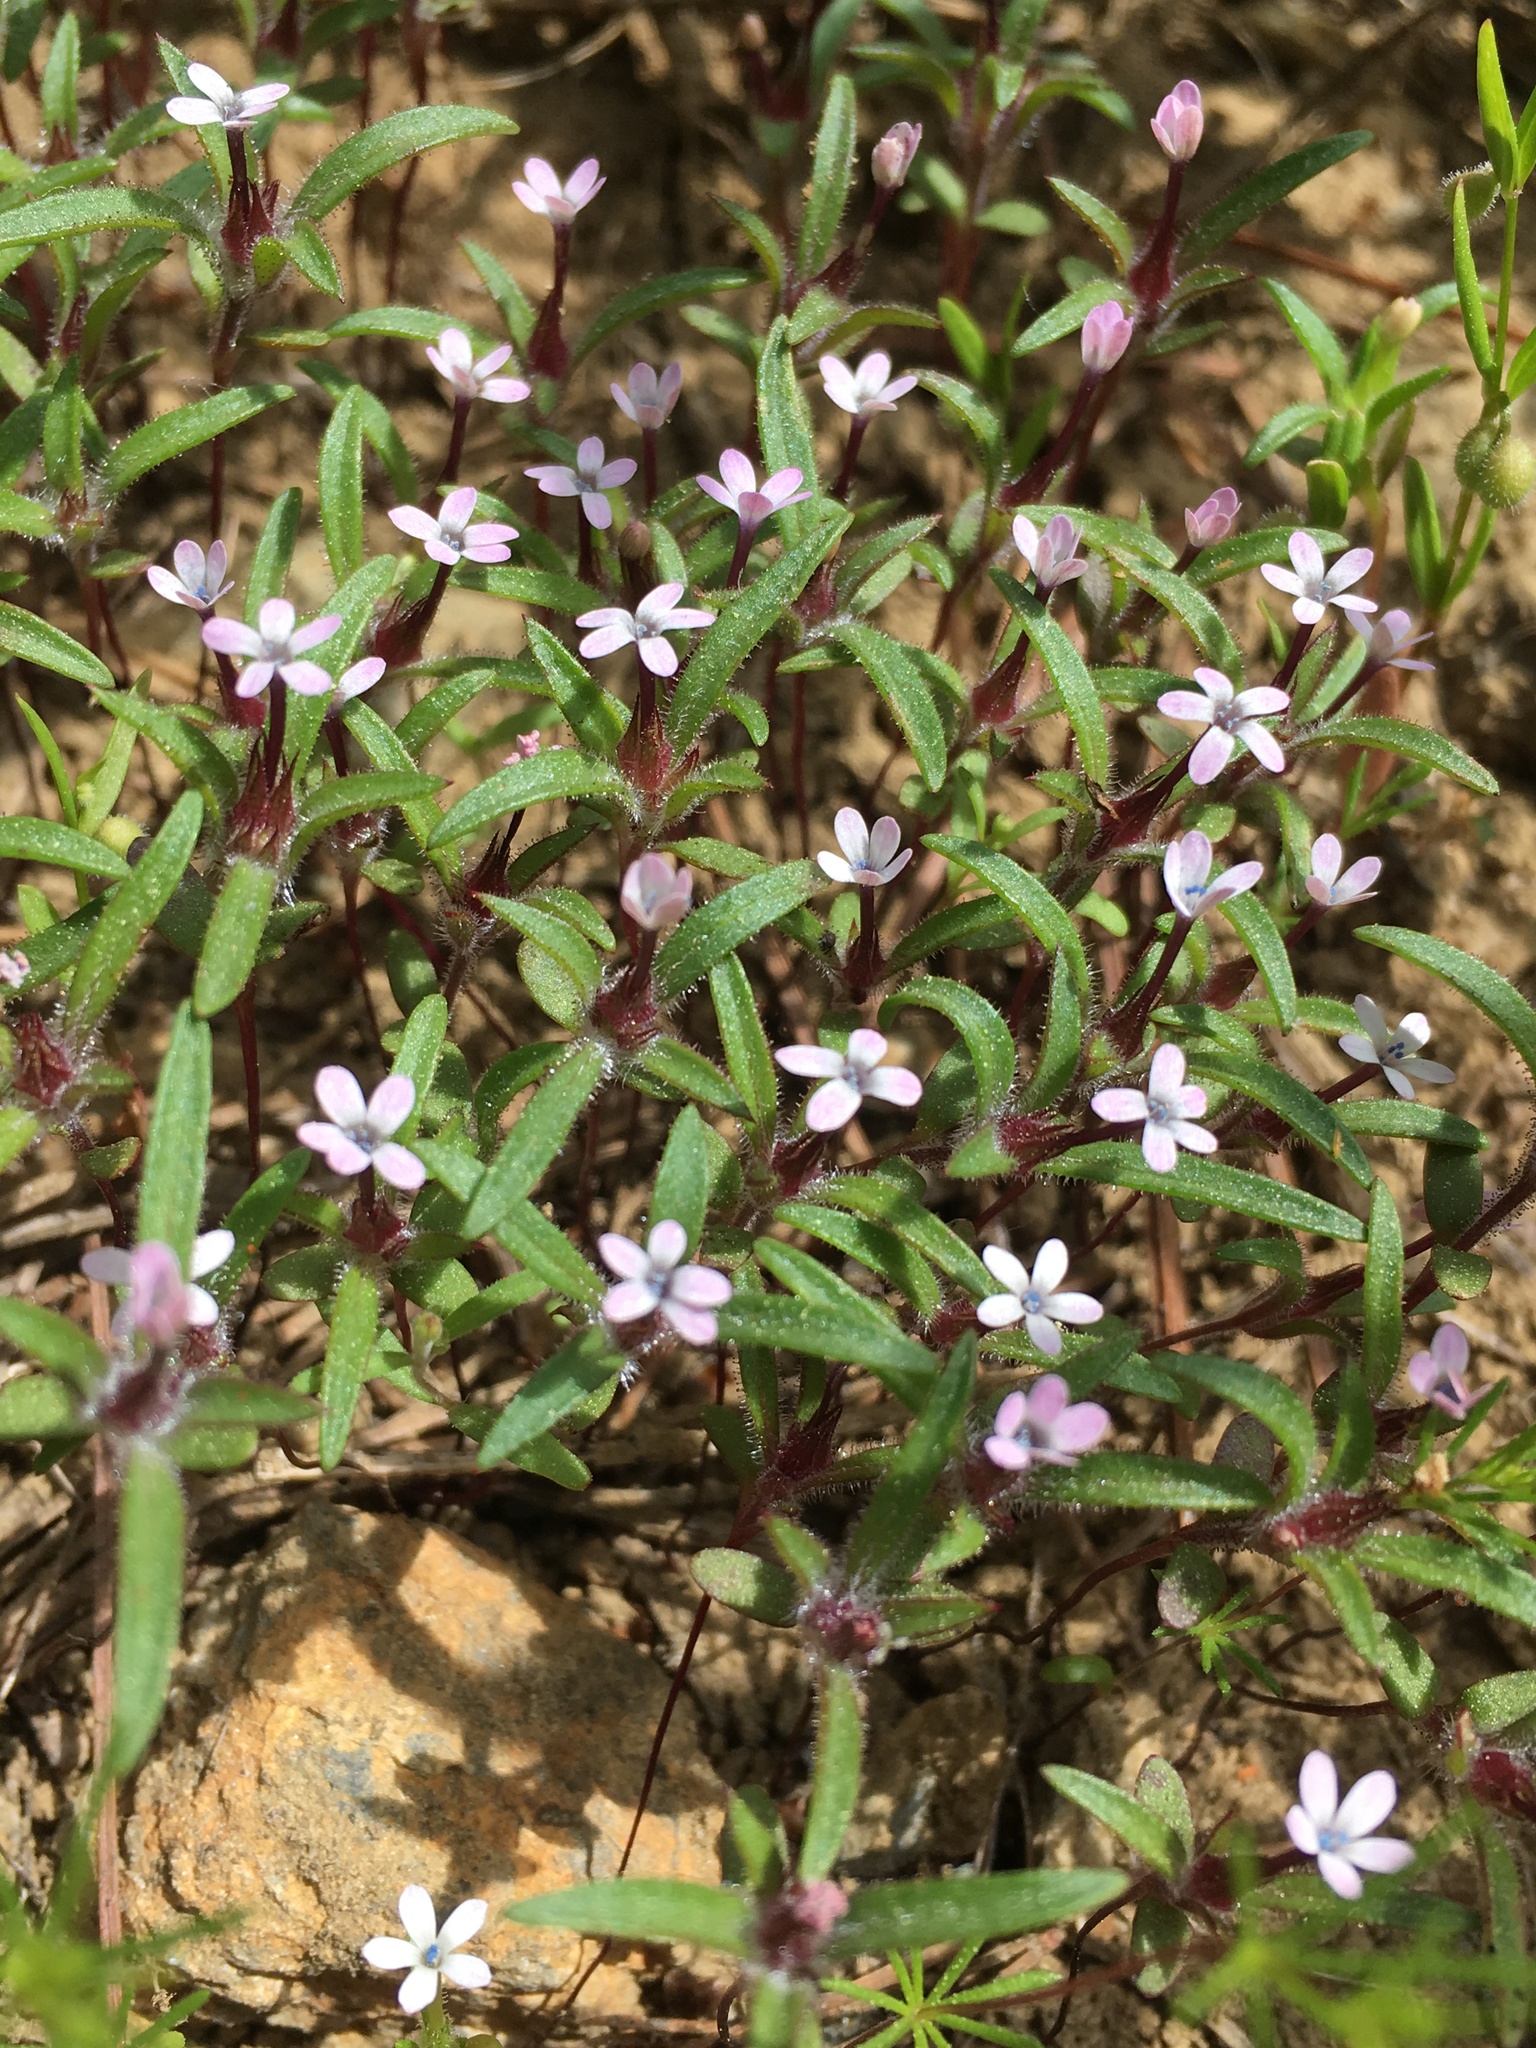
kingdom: Plantae
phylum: Tracheophyta
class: Magnoliopsida
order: Ericales
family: Polemoniaceae
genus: Collomia
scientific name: Collomia tinctoria
